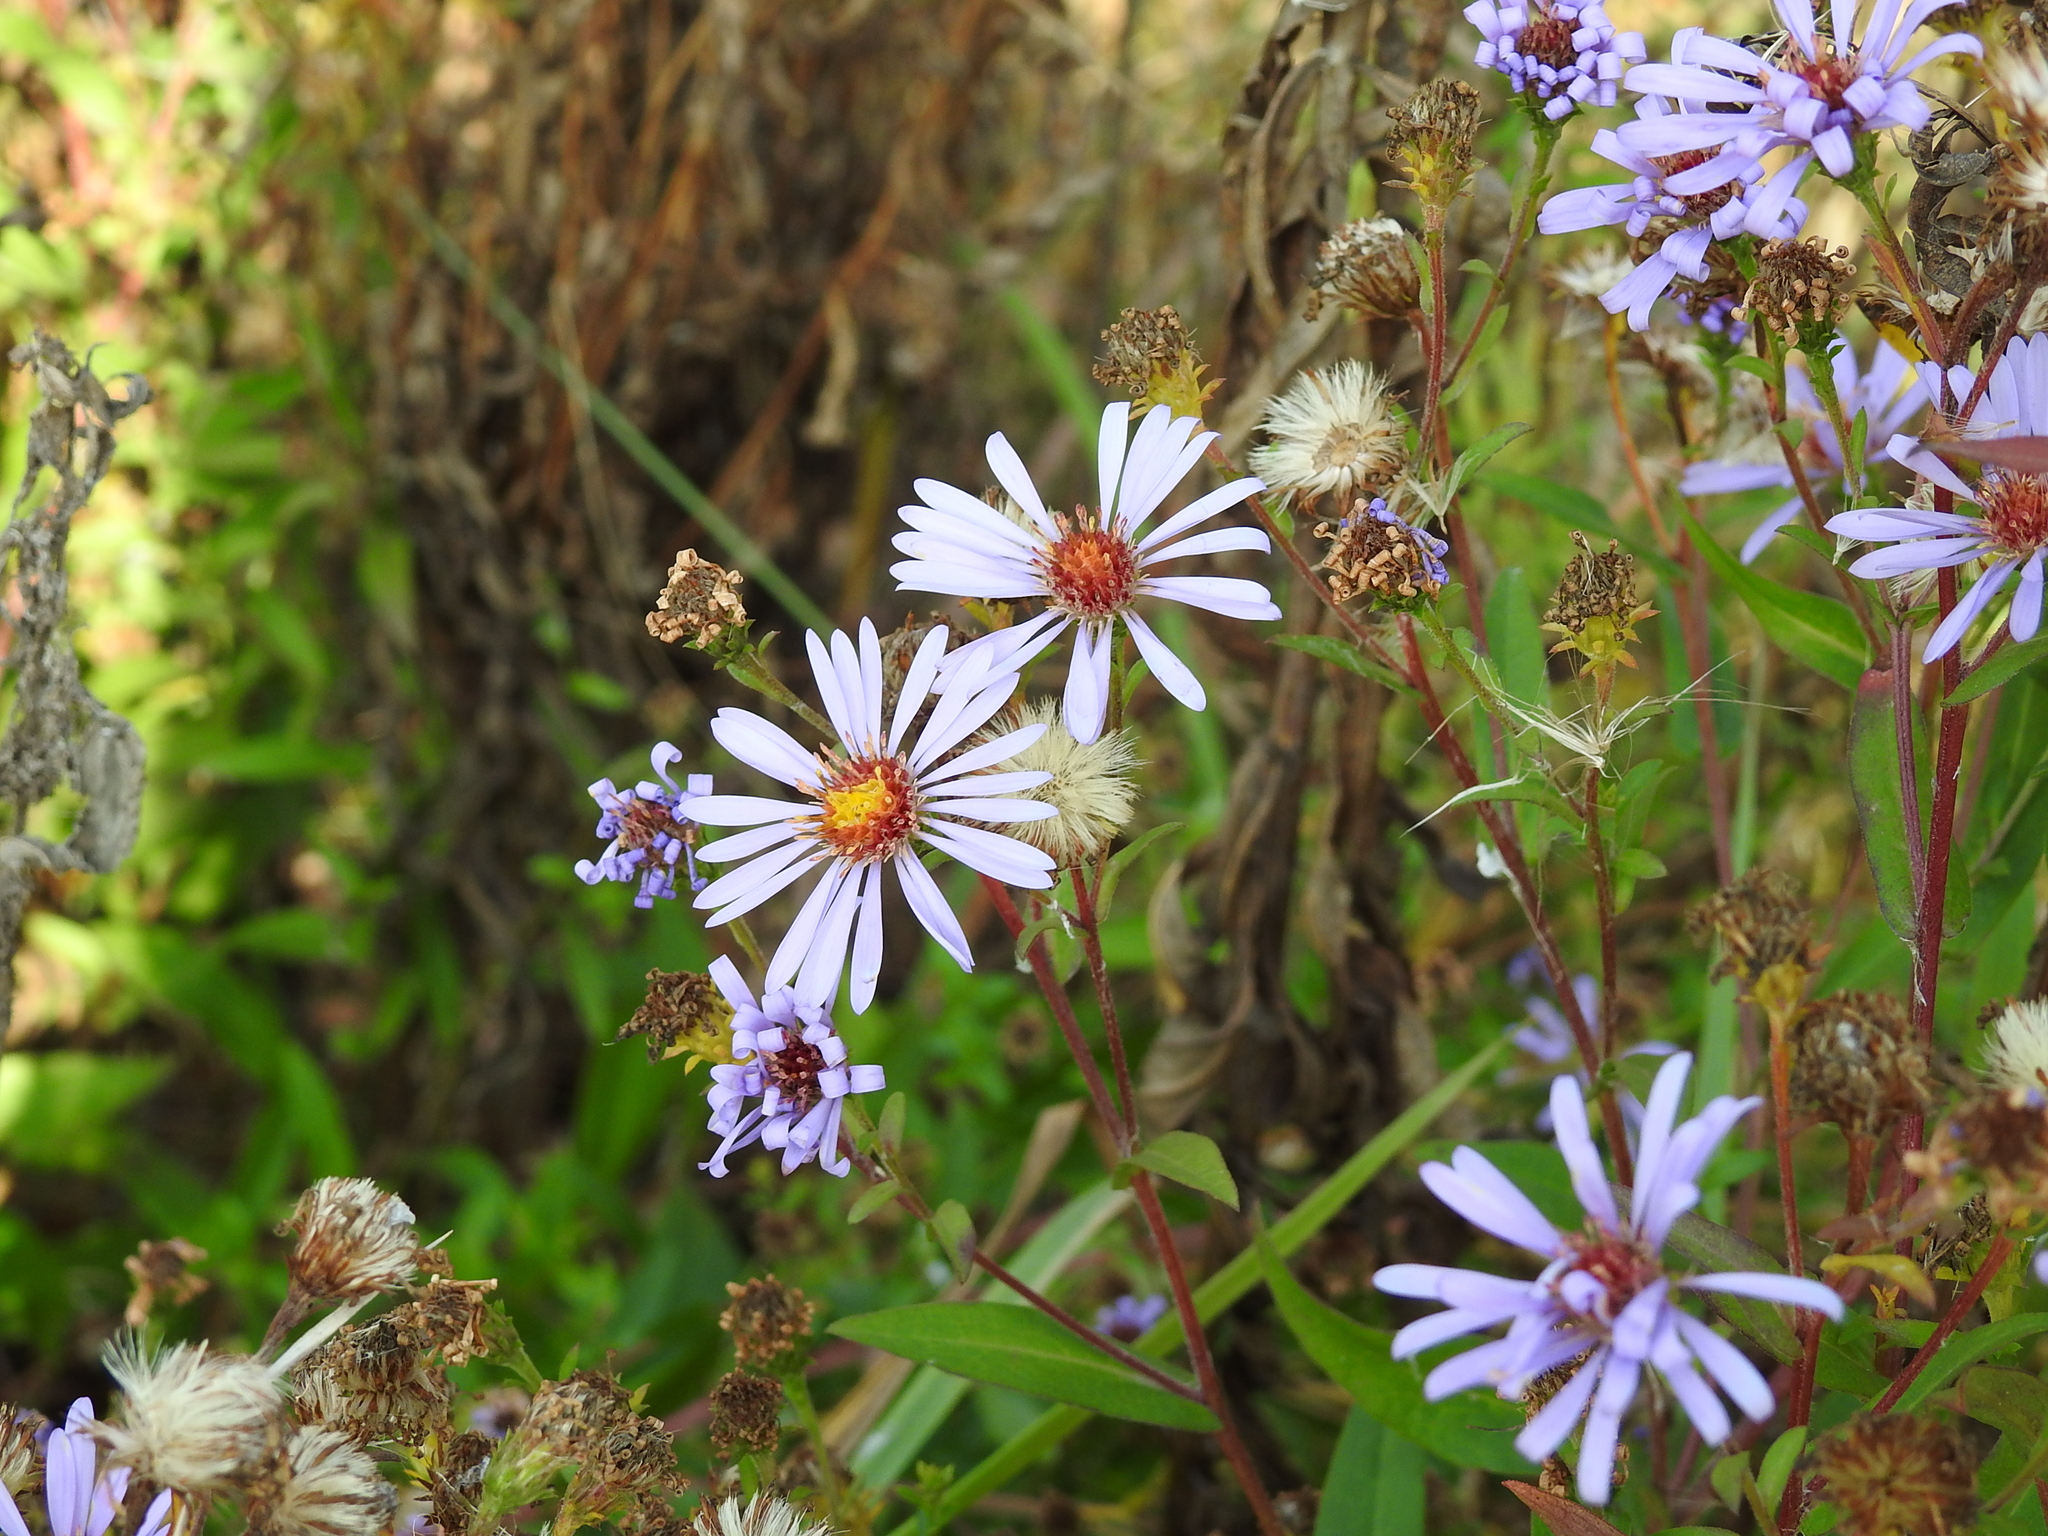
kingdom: Plantae
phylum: Tracheophyta
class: Magnoliopsida
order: Asterales
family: Asteraceae
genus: Symphyotrichum
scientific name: Symphyotrichum novi-belgii
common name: Michaelmas daisy
